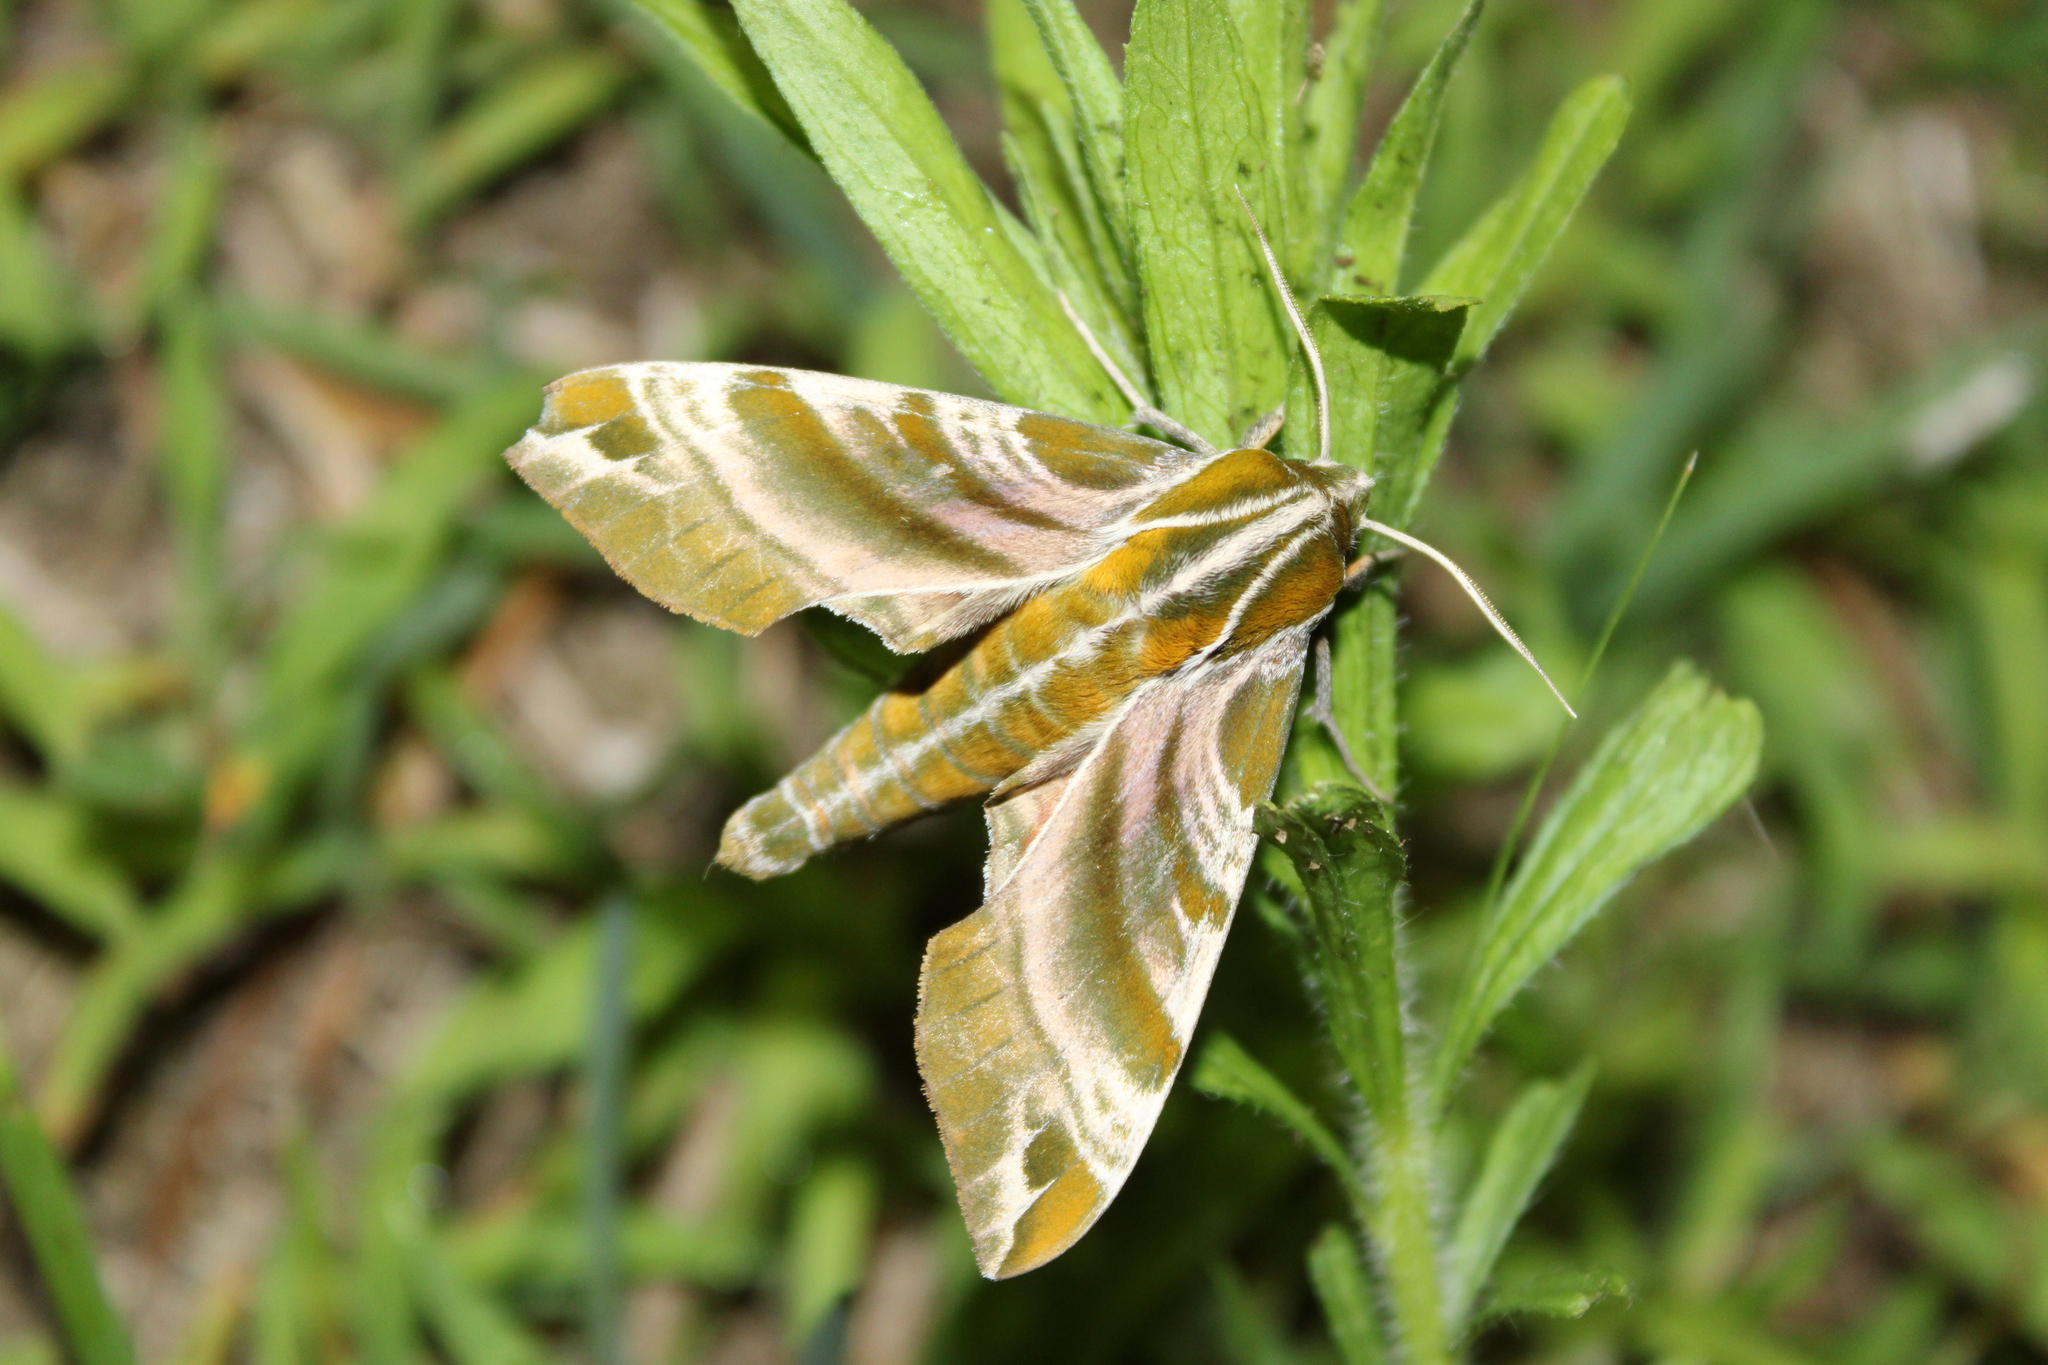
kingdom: Animalia
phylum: Arthropoda
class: Insecta
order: Lepidoptera
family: Sphingidae
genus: Darapsa
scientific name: Darapsa versicolor
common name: Hydrangea sphinx
